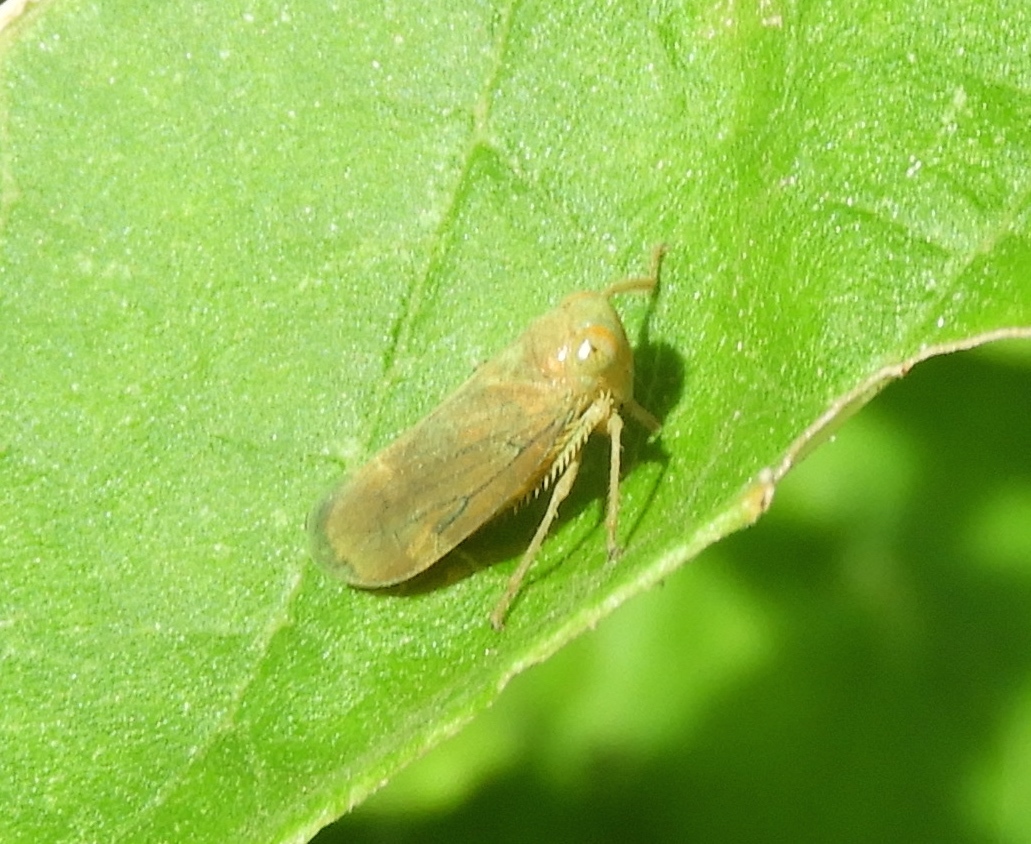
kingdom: Animalia
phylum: Arthropoda
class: Insecta
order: Hemiptera
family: Cicadellidae
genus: Jikradia
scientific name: Jikradia
